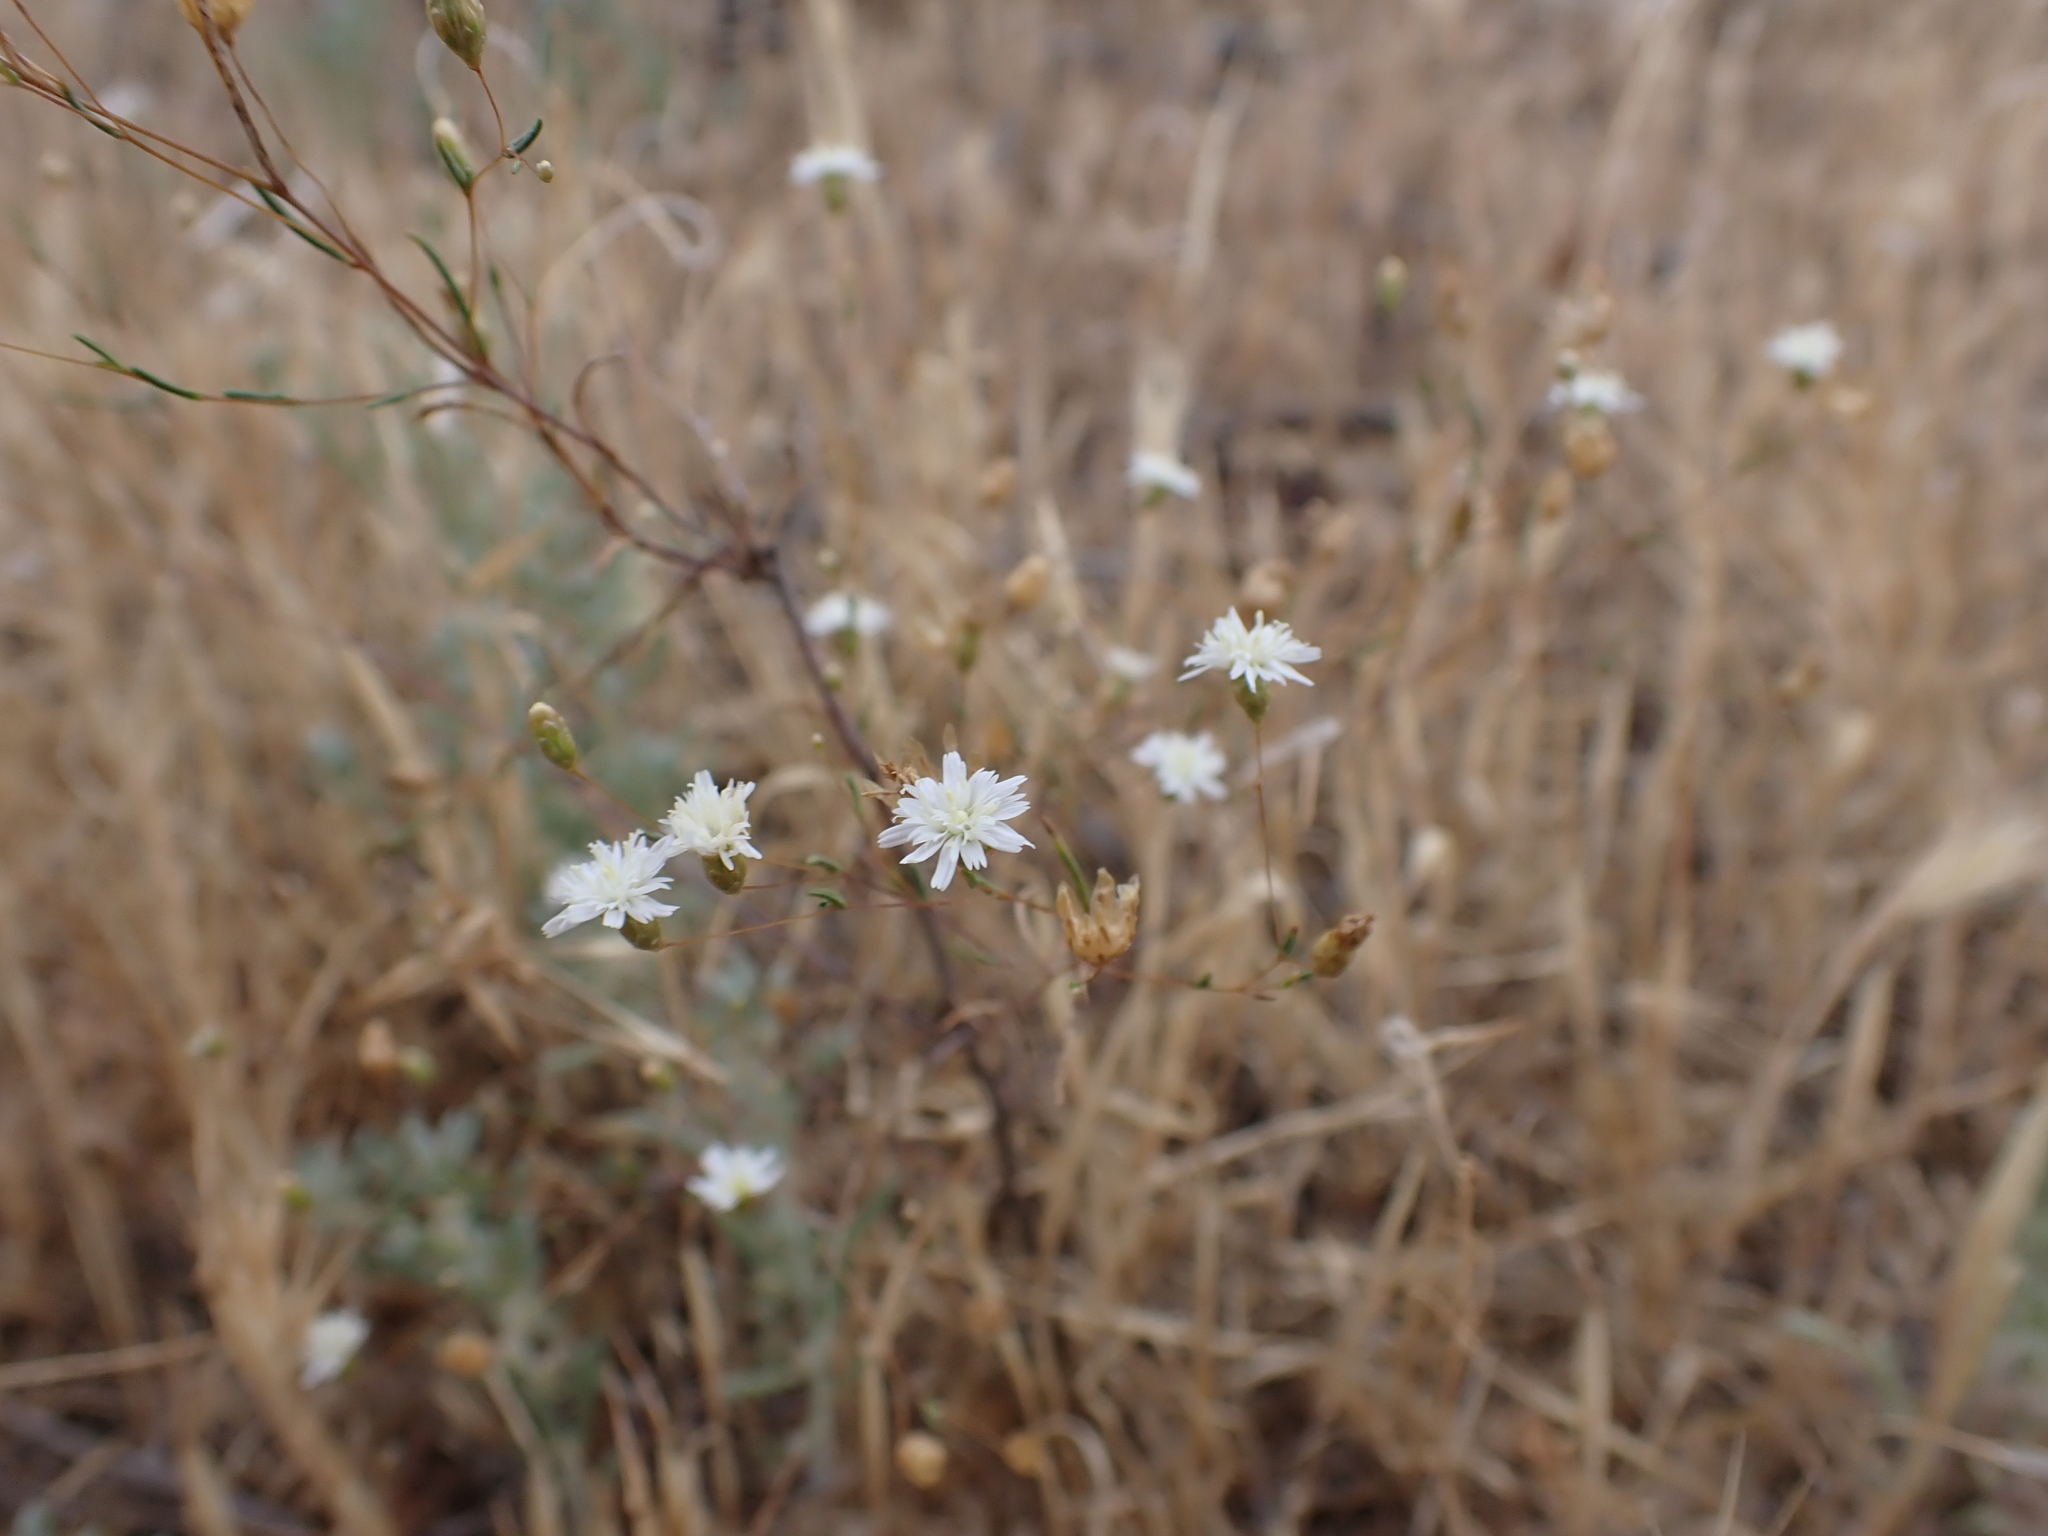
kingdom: Plantae
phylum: Tracheophyta
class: Magnoliopsida
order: Asterales
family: Asteraceae
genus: Siemssenia
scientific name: Siemssenia capillaris
